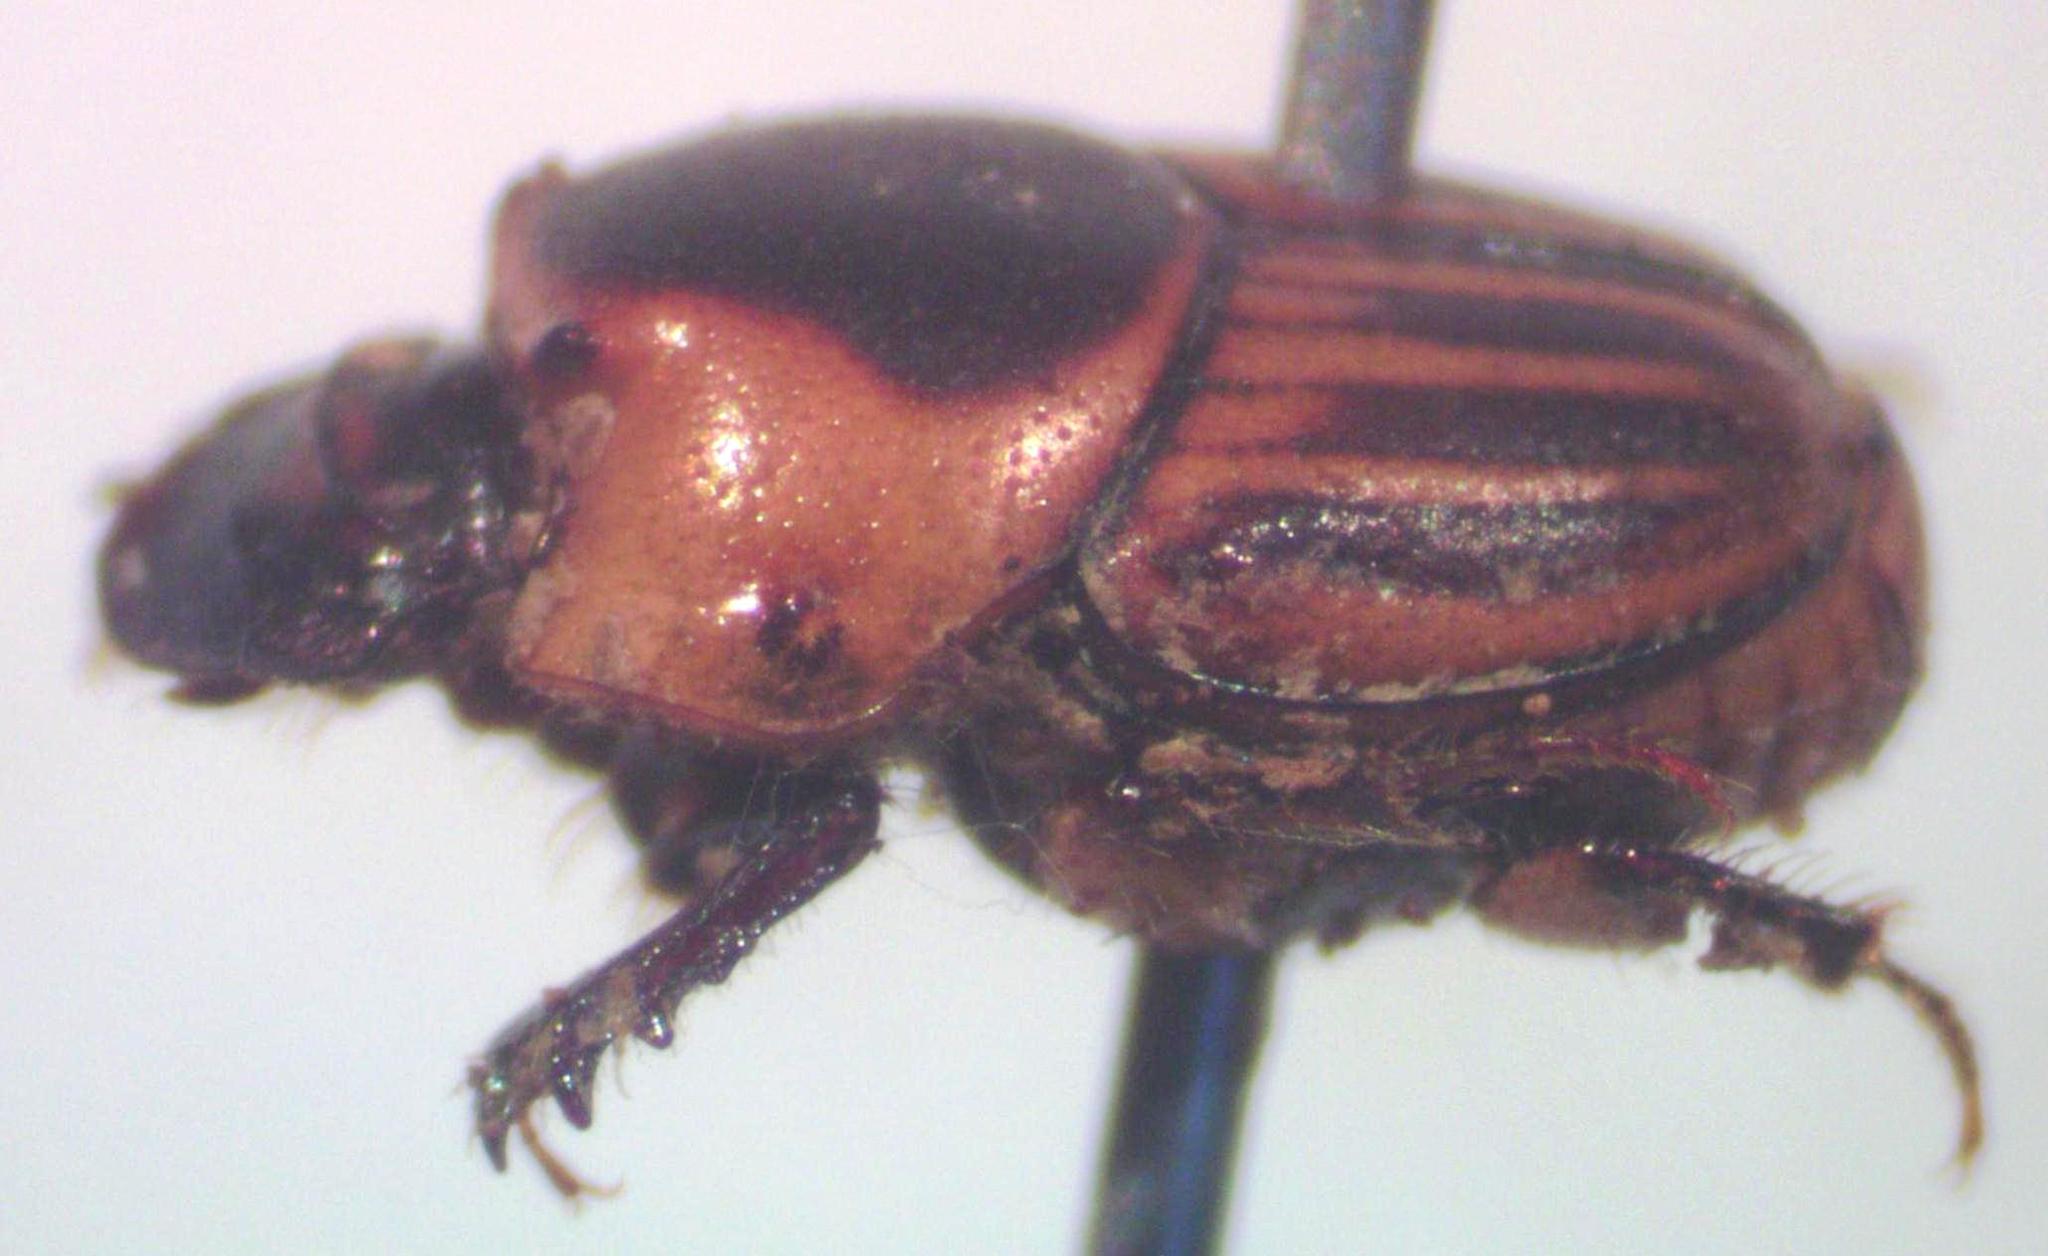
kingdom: Animalia
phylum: Arthropoda
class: Insecta
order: Coleoptera
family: Scarabaeidae
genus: Onthophagus
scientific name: Onthophagus marginicollis
